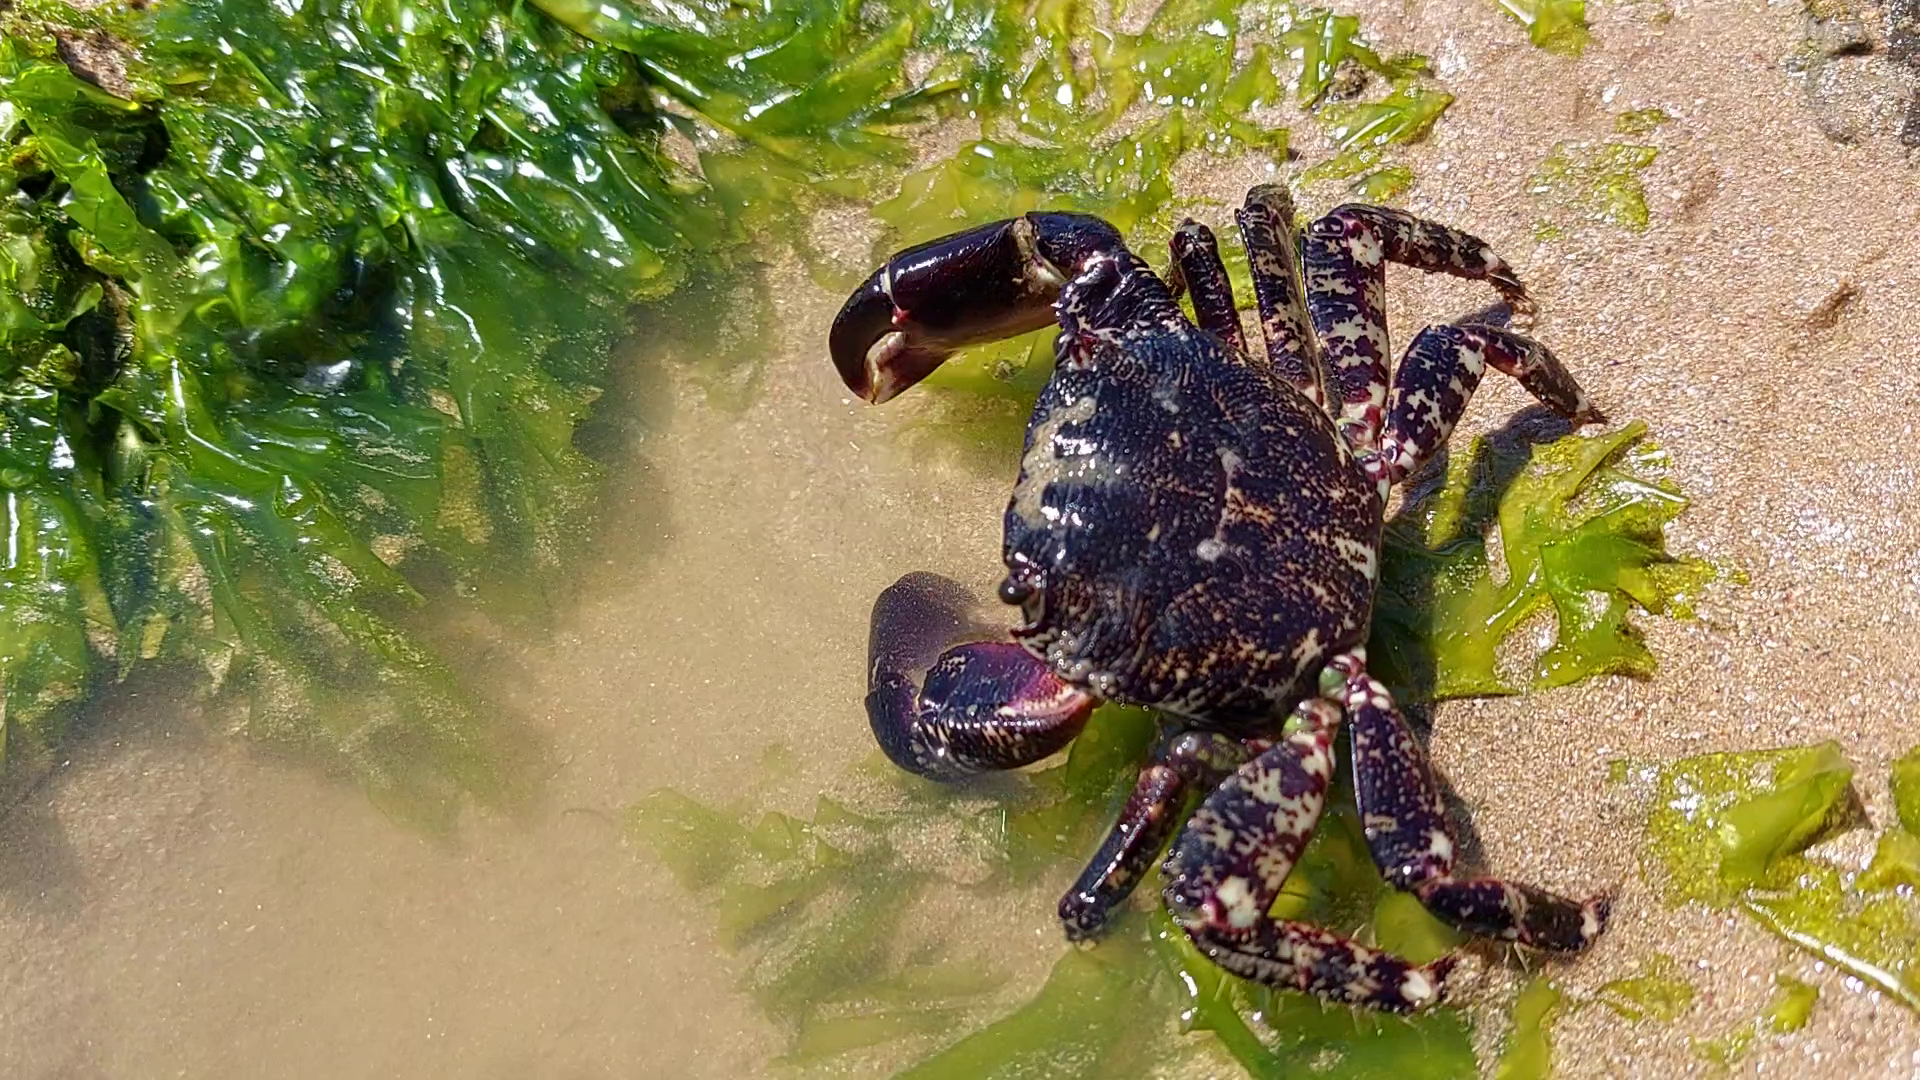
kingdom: Animalia
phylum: Arthropoda
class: Malacostraca
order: Decapoda
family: Grapsidae
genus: Pachygrapsus
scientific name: Pachygrapsus marmoratus
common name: Marbled rock crab
